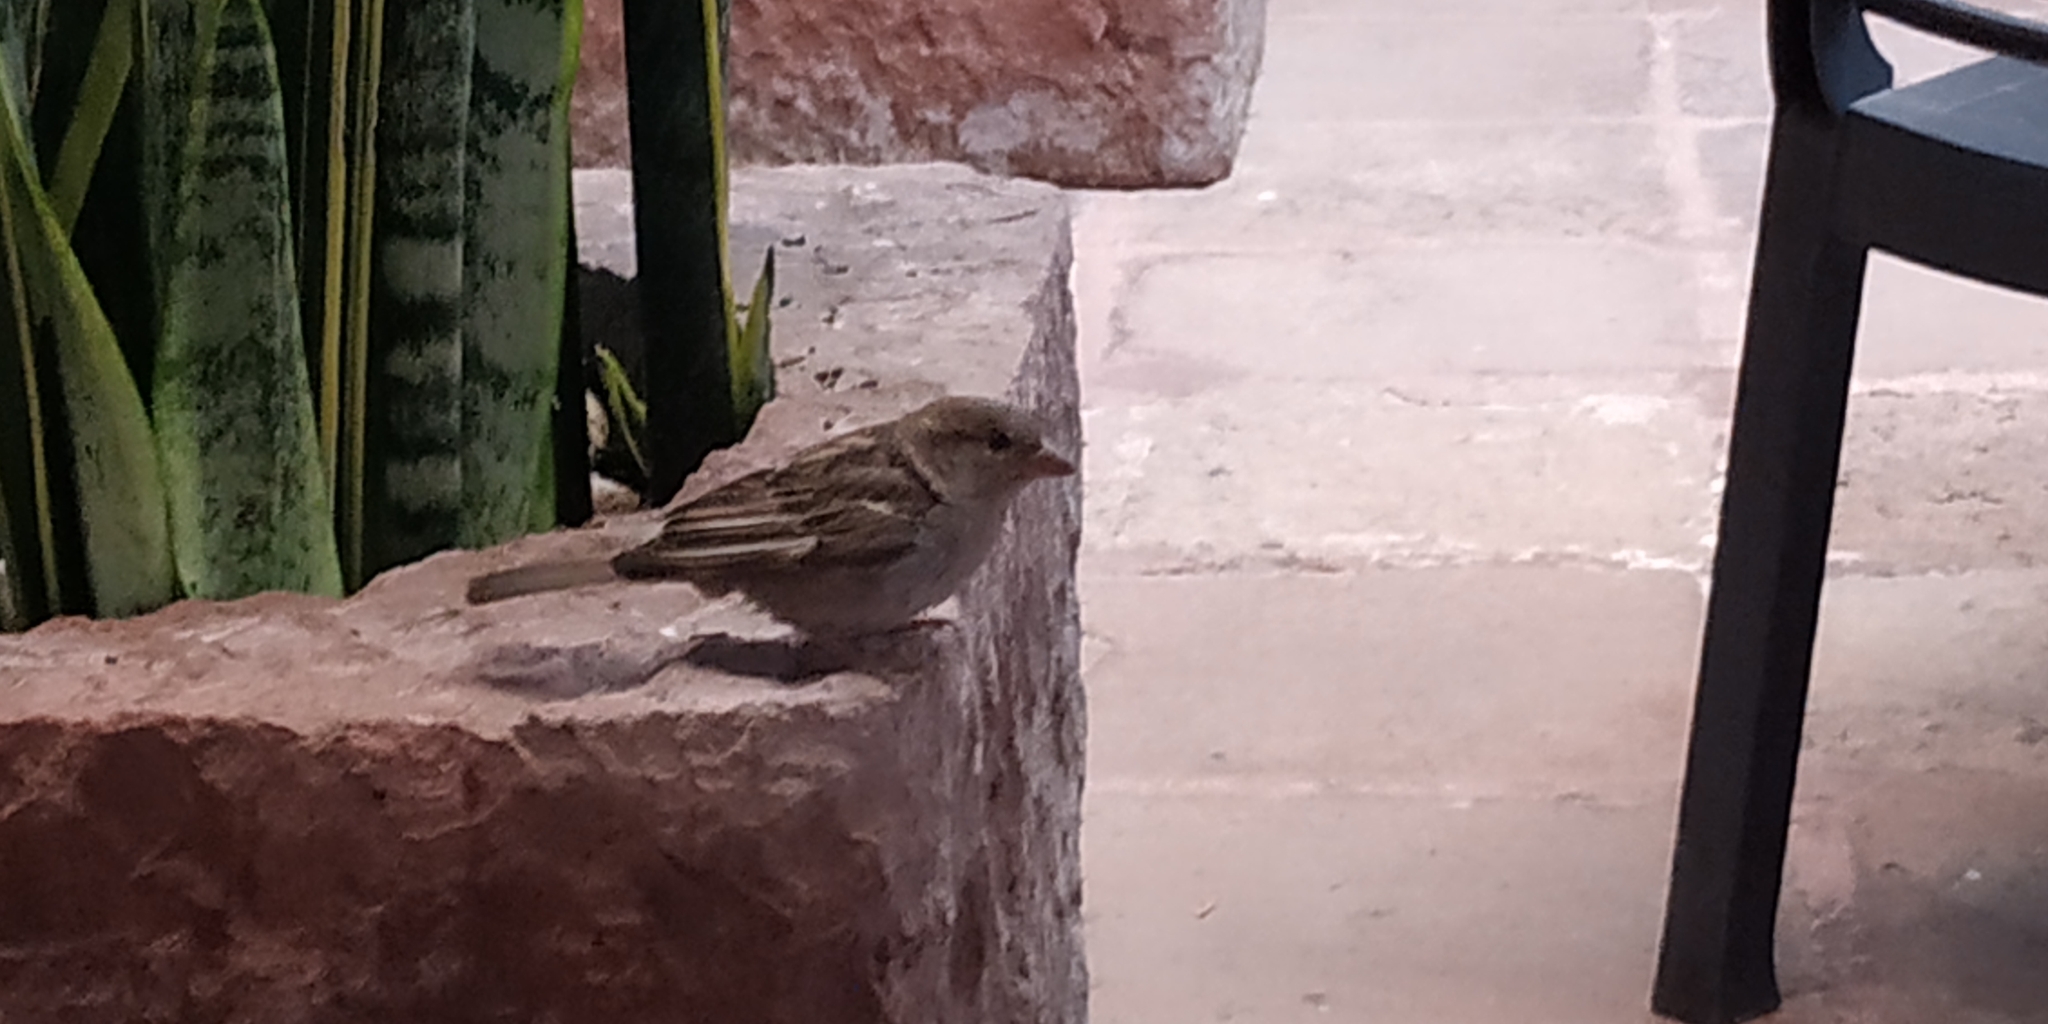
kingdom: Animalia
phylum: Chordata
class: Aves
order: Passeriformes
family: Passeridae
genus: Passer
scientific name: Passer domesticus
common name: House sparrow
